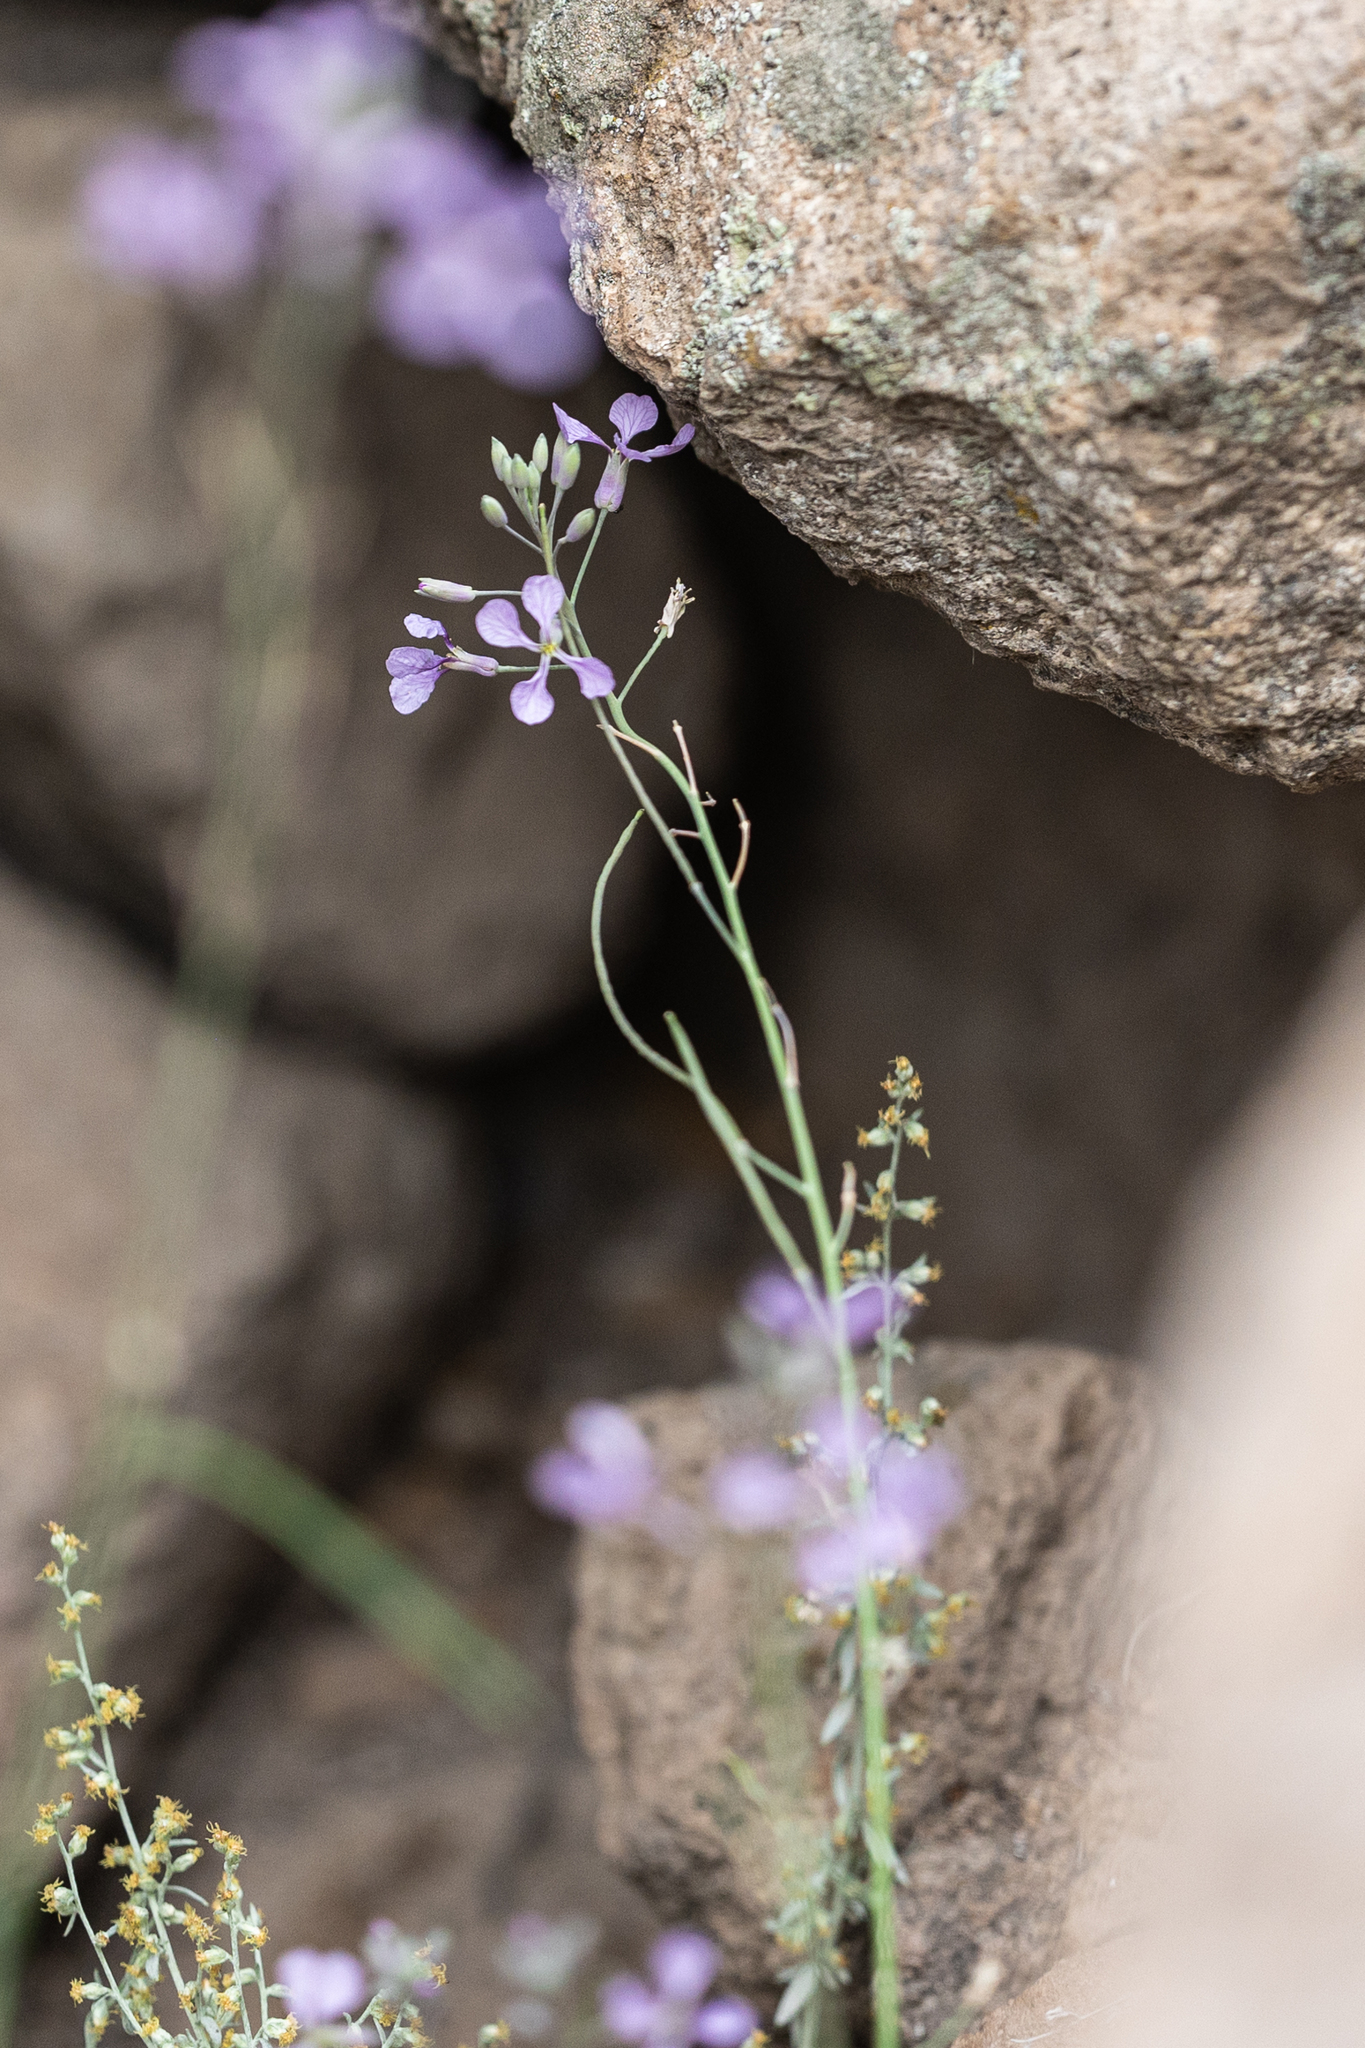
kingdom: Plantae
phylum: Tracheophyta
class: Magnoliopsida
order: Brassicales
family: Brassicaceae
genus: Hesperidanthus
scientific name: Hesperidanthus linearifolius
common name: Slim-leaf plains mustard
